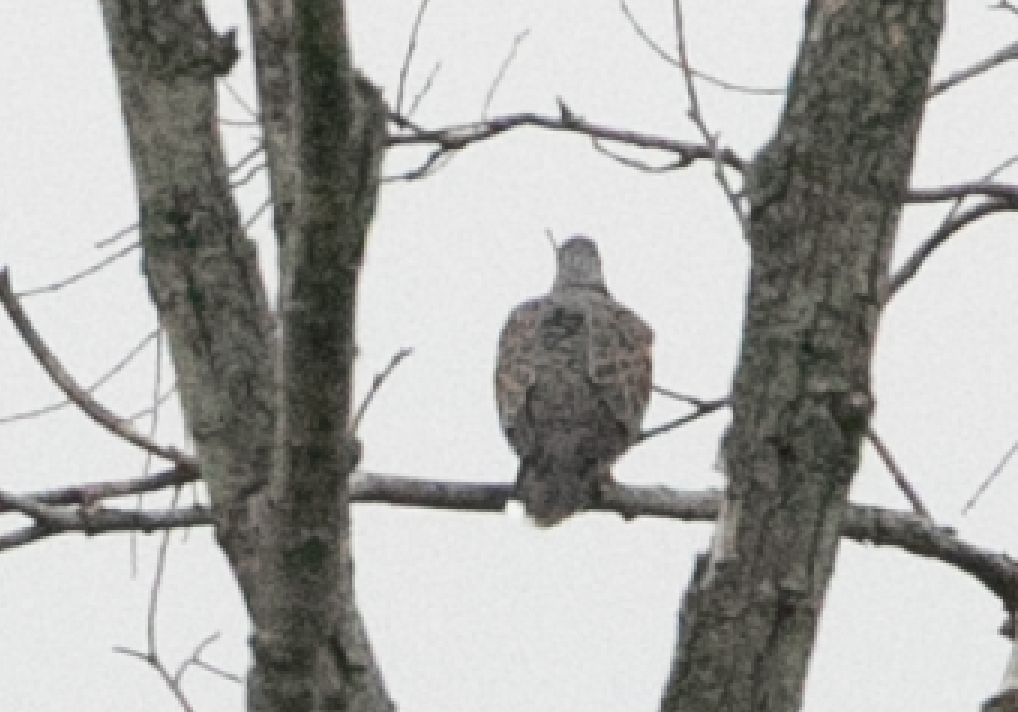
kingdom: Animalia
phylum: Chordata
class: Aves
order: Columbiformes
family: Columbidae
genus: Streptopelia
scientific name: Streptopelia turtur
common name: European turtle dove
